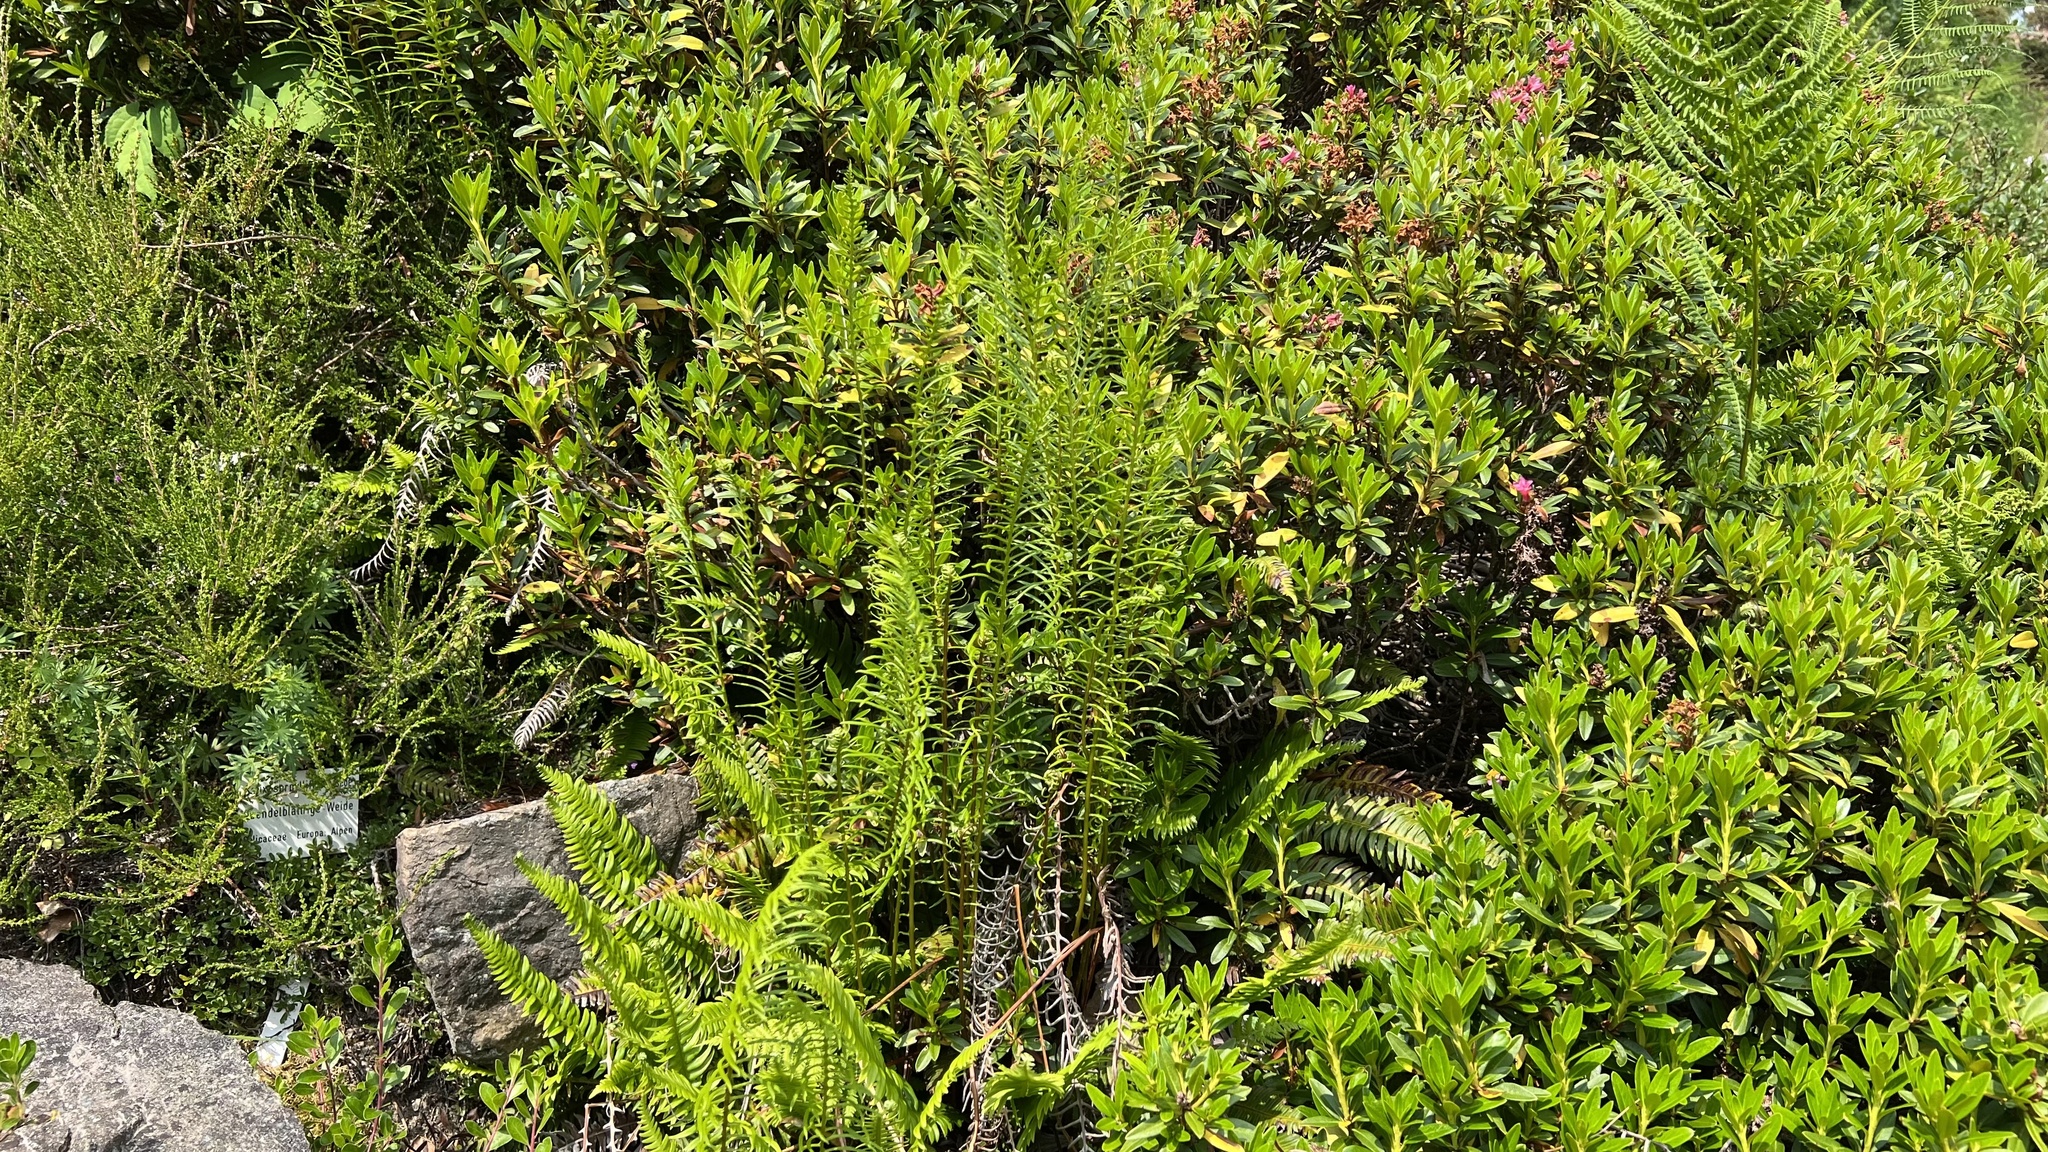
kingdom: Plantae
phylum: Tracheophyta
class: Polypodiopsida
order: Polypodiales
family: Blechnaceae
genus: Struthiopteris
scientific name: Struthiopteris spicant
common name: Deer fern
